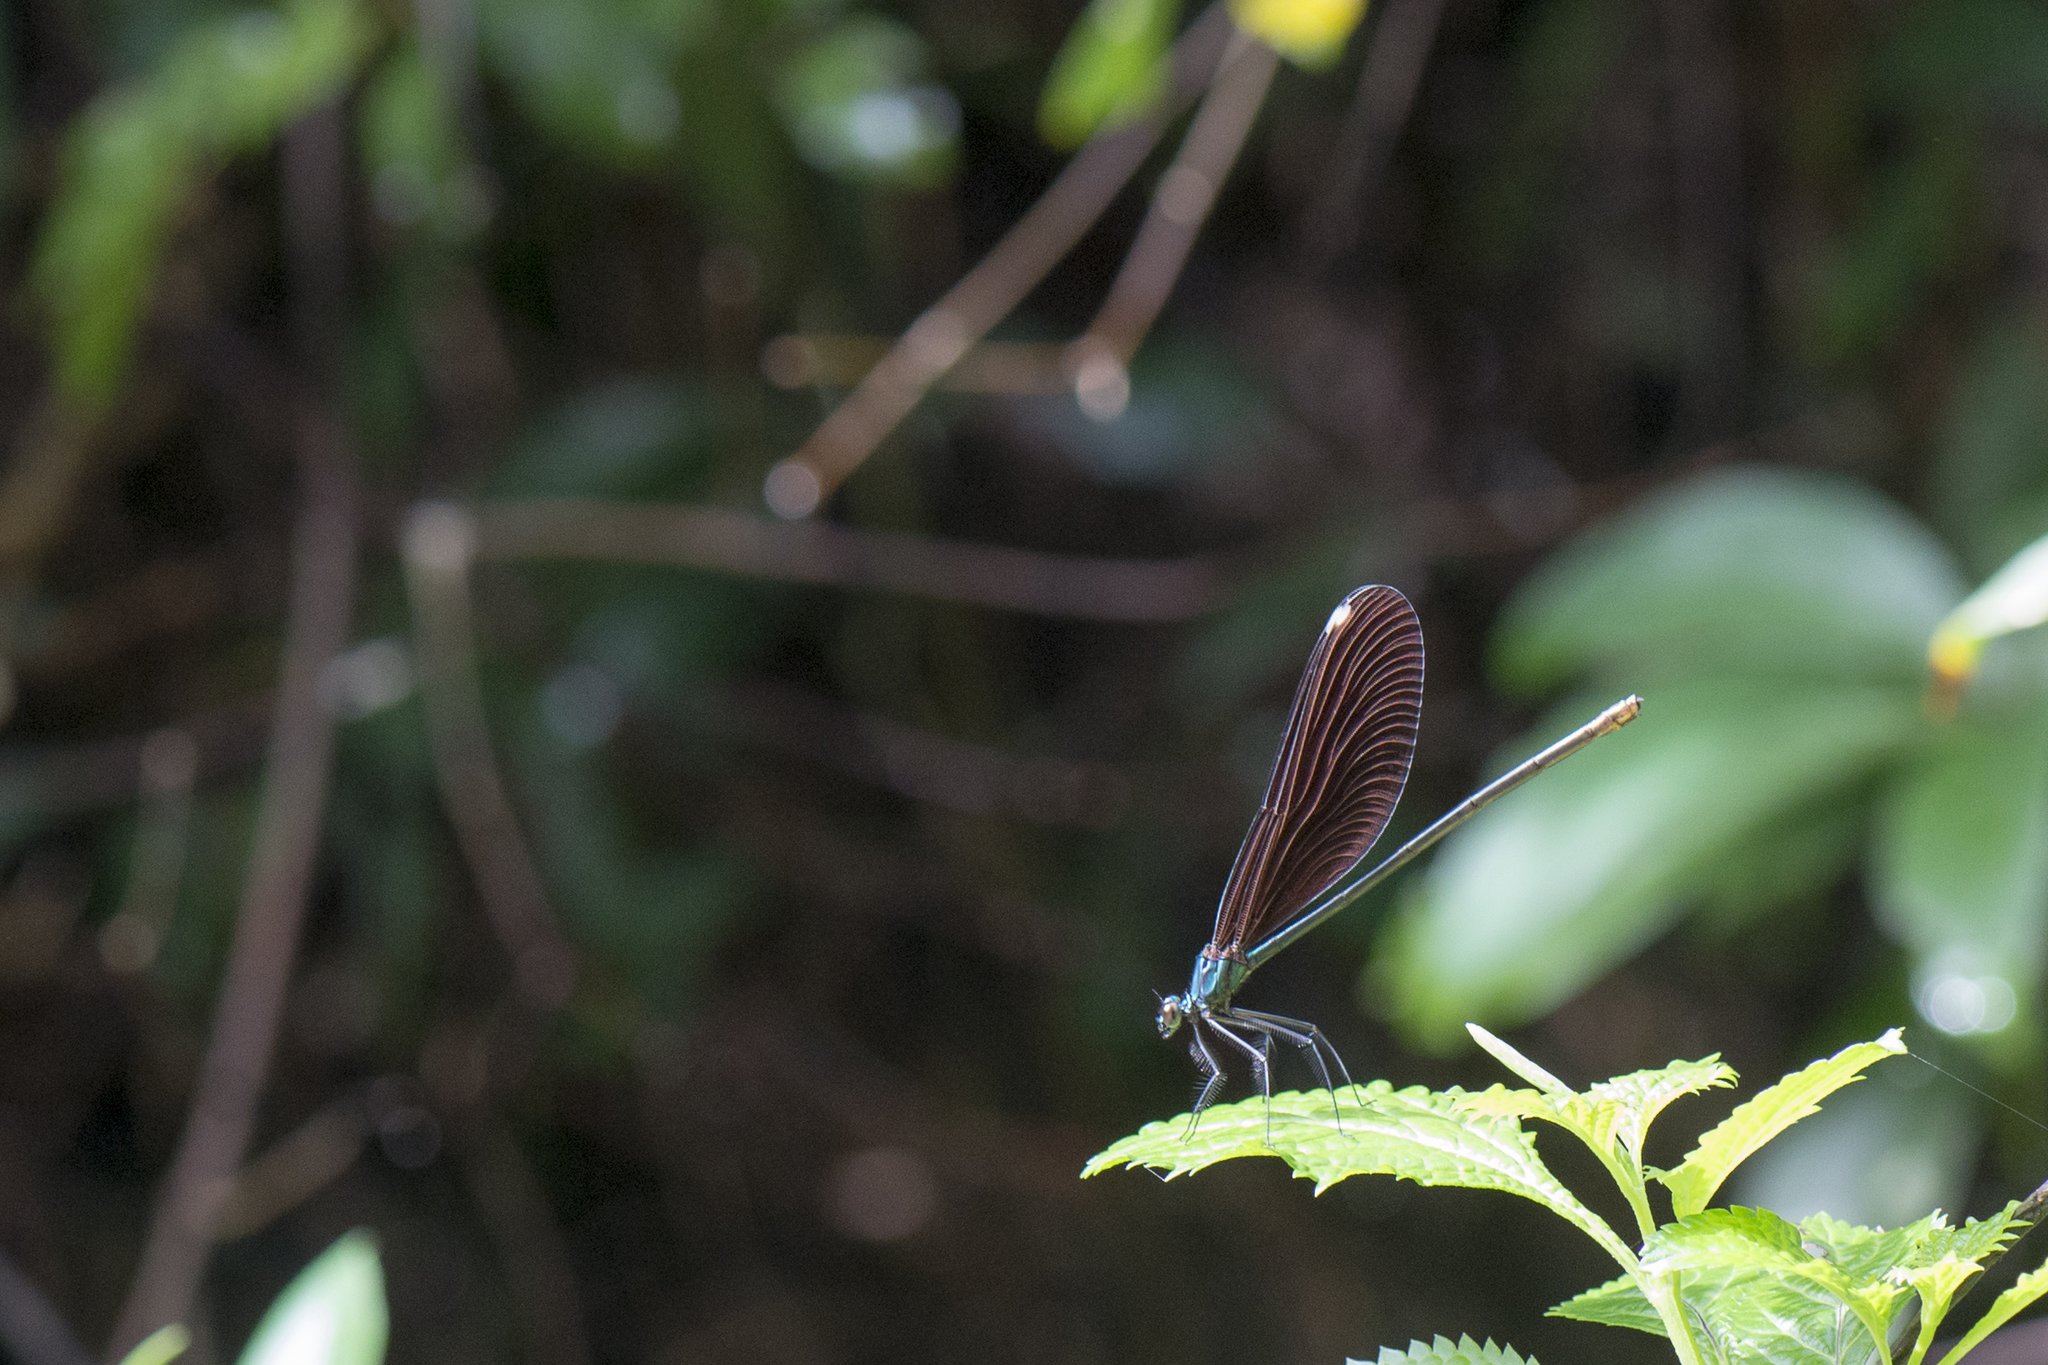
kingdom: Animalia
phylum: Arthropoda
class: Insecta
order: Odonata
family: Calopterygidae
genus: Matrona
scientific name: Matrona cyanoptera
